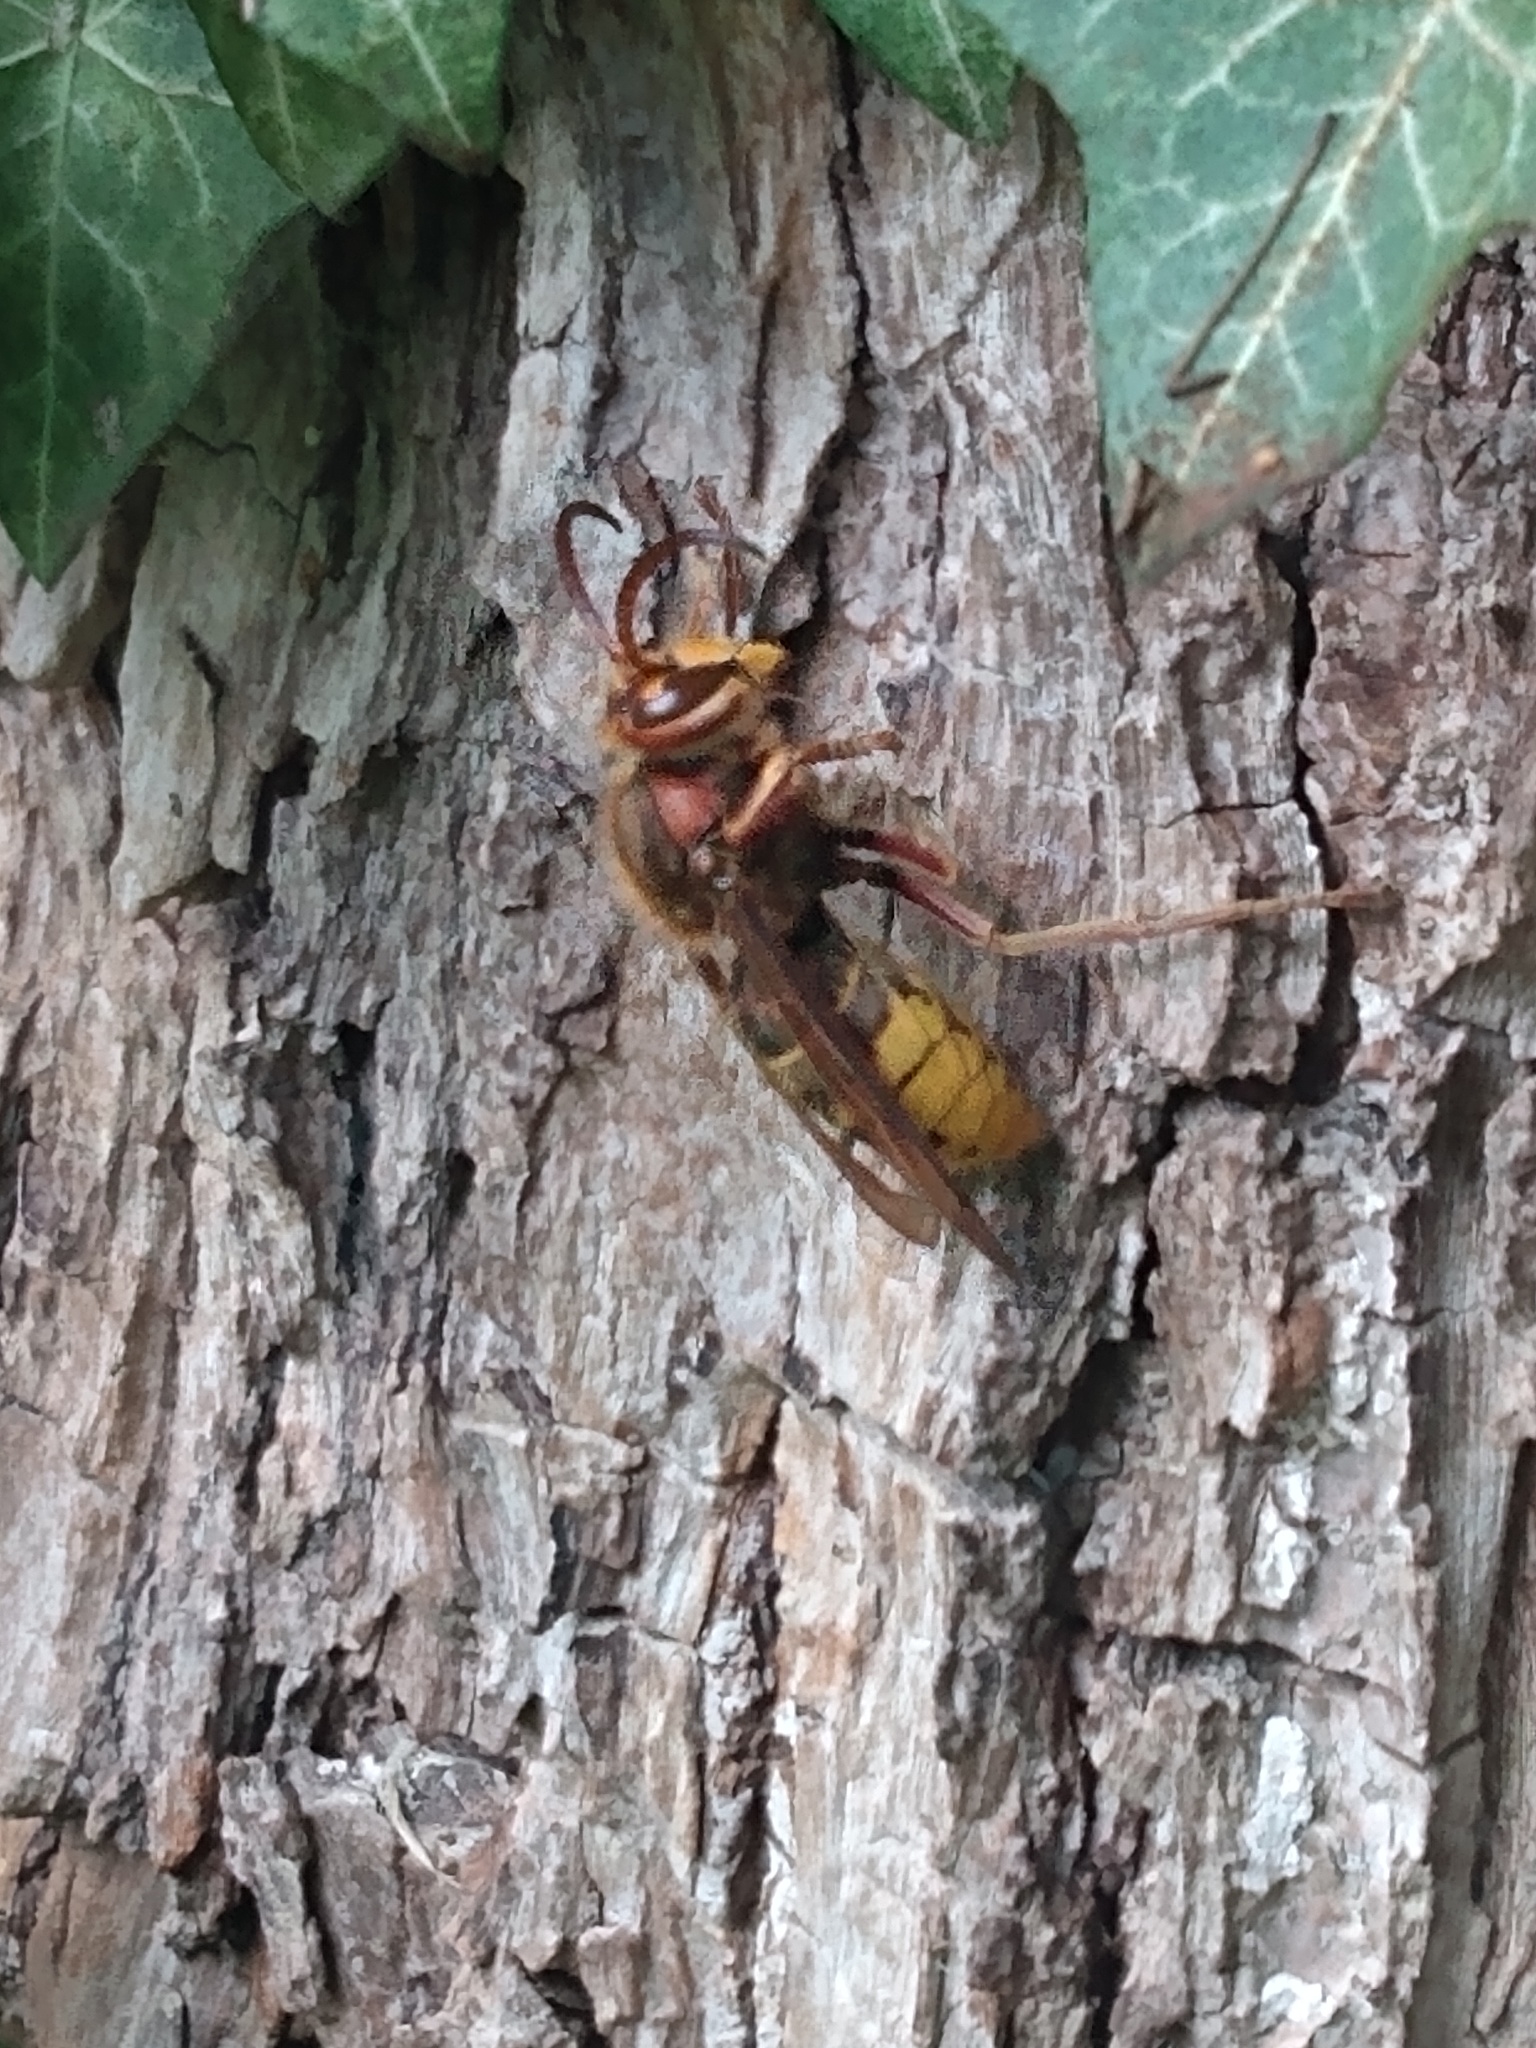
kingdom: Animalia
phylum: Arthropoda
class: Insecta
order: Hymenoptera
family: Vespidae
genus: Vespa
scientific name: Vespa crabro
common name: Hornet
